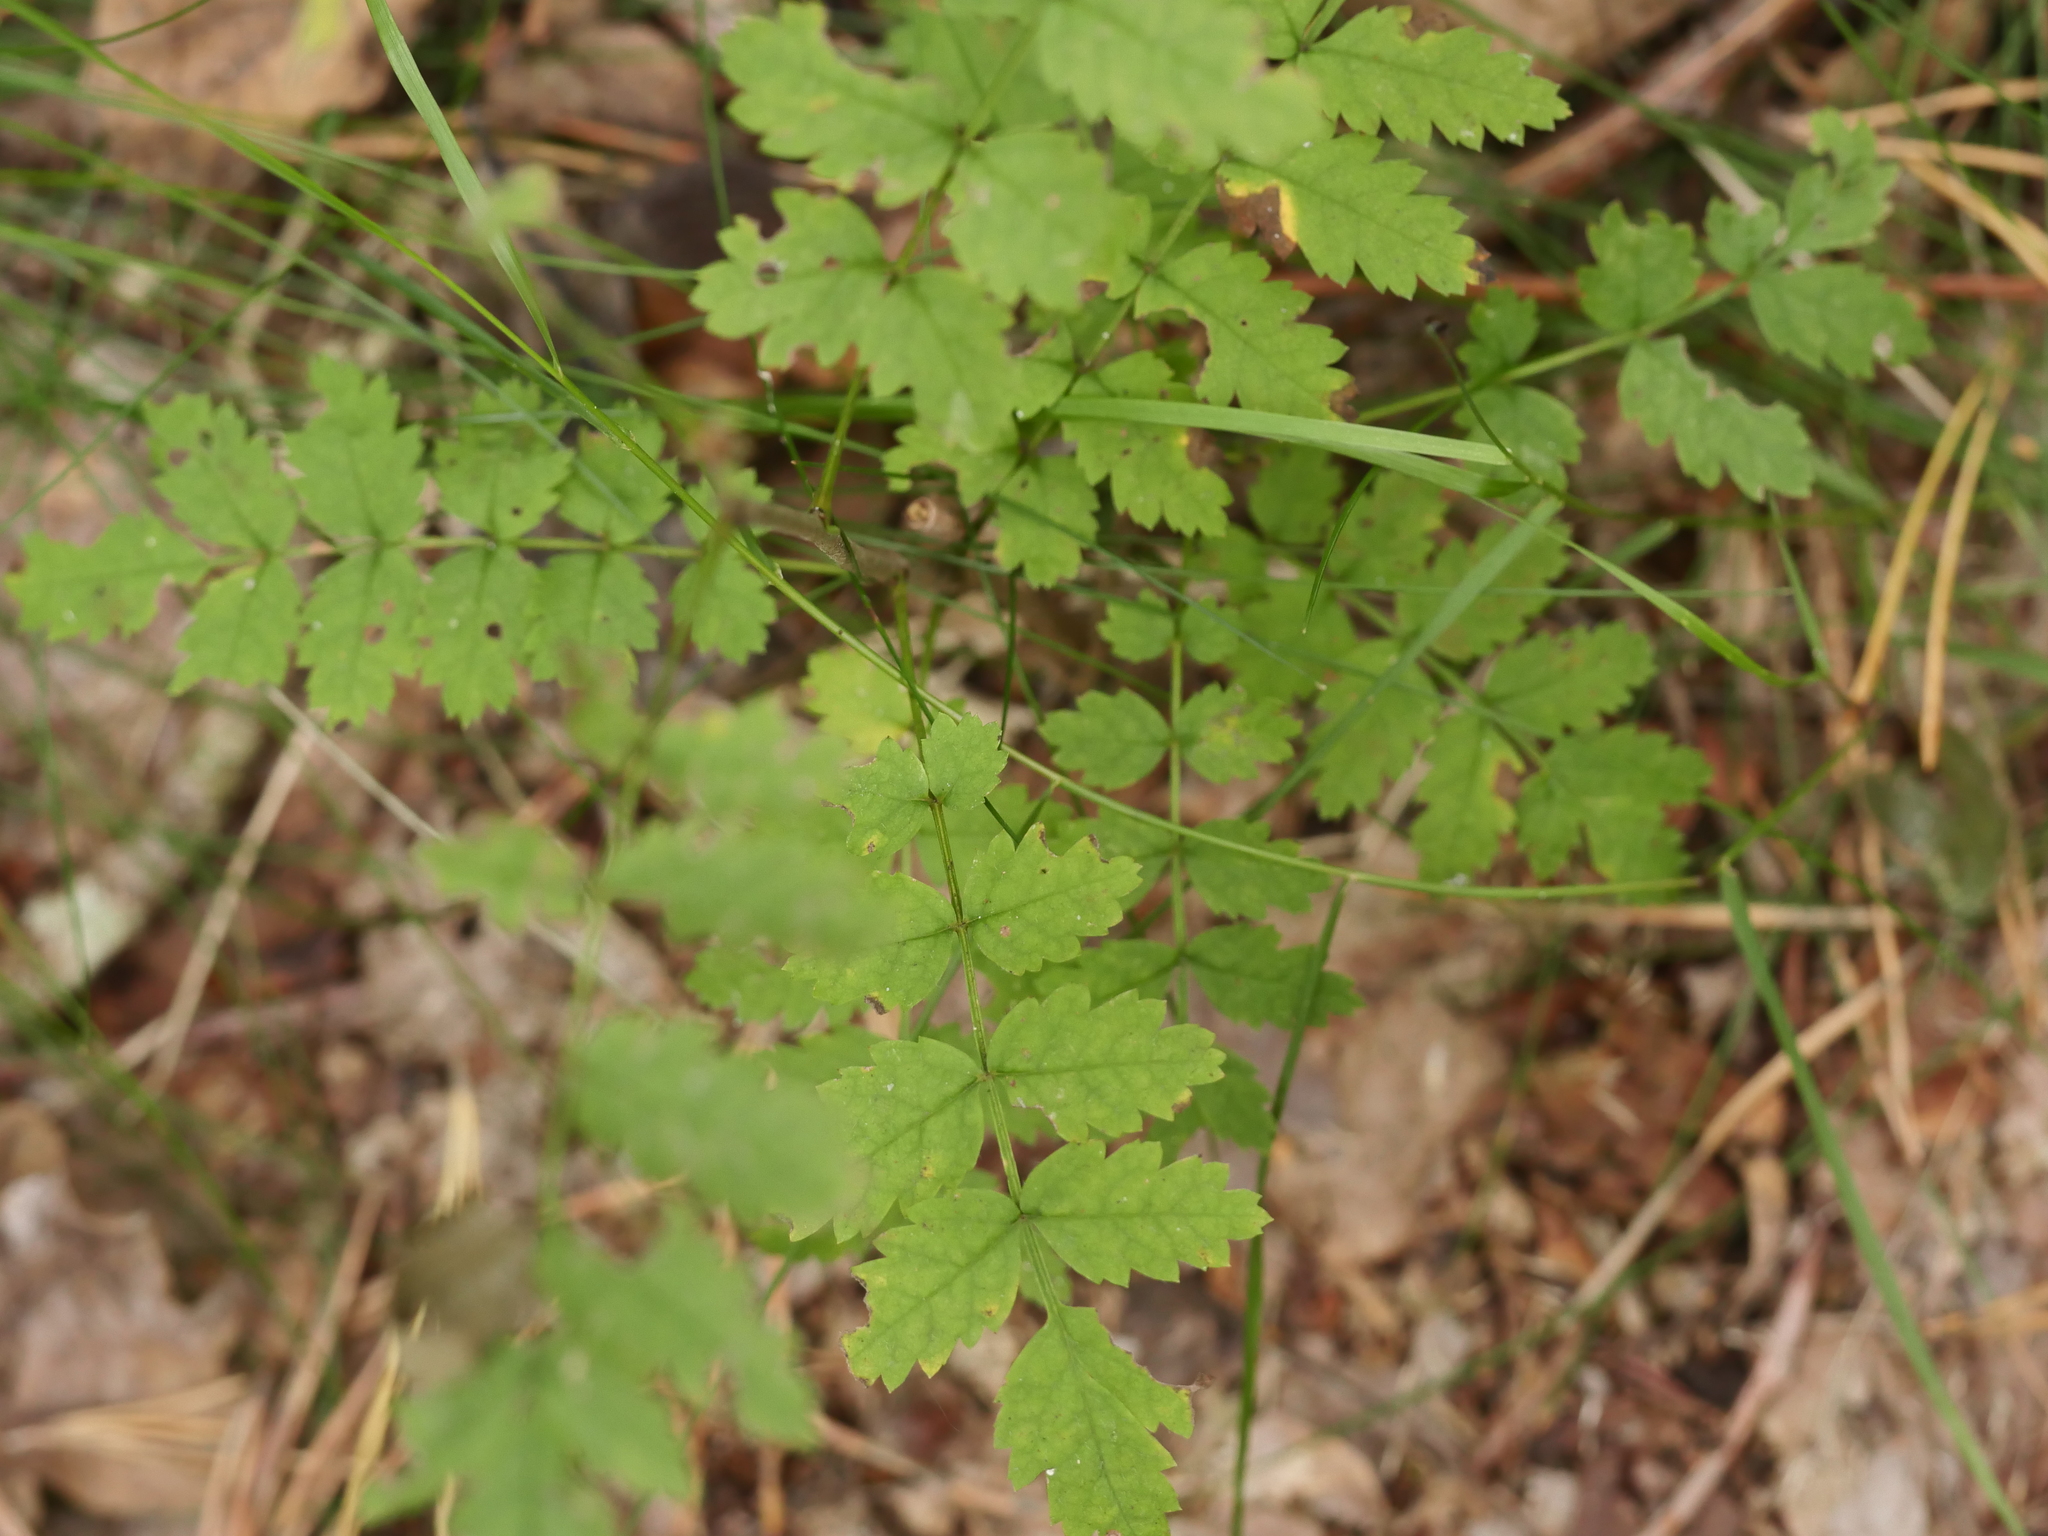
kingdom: Plantae
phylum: Tracheophyta
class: Magnoliopsida
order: Rosales
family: Rosaceae
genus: Sorbus
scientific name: Sorbus aucuparia
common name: Rowan
